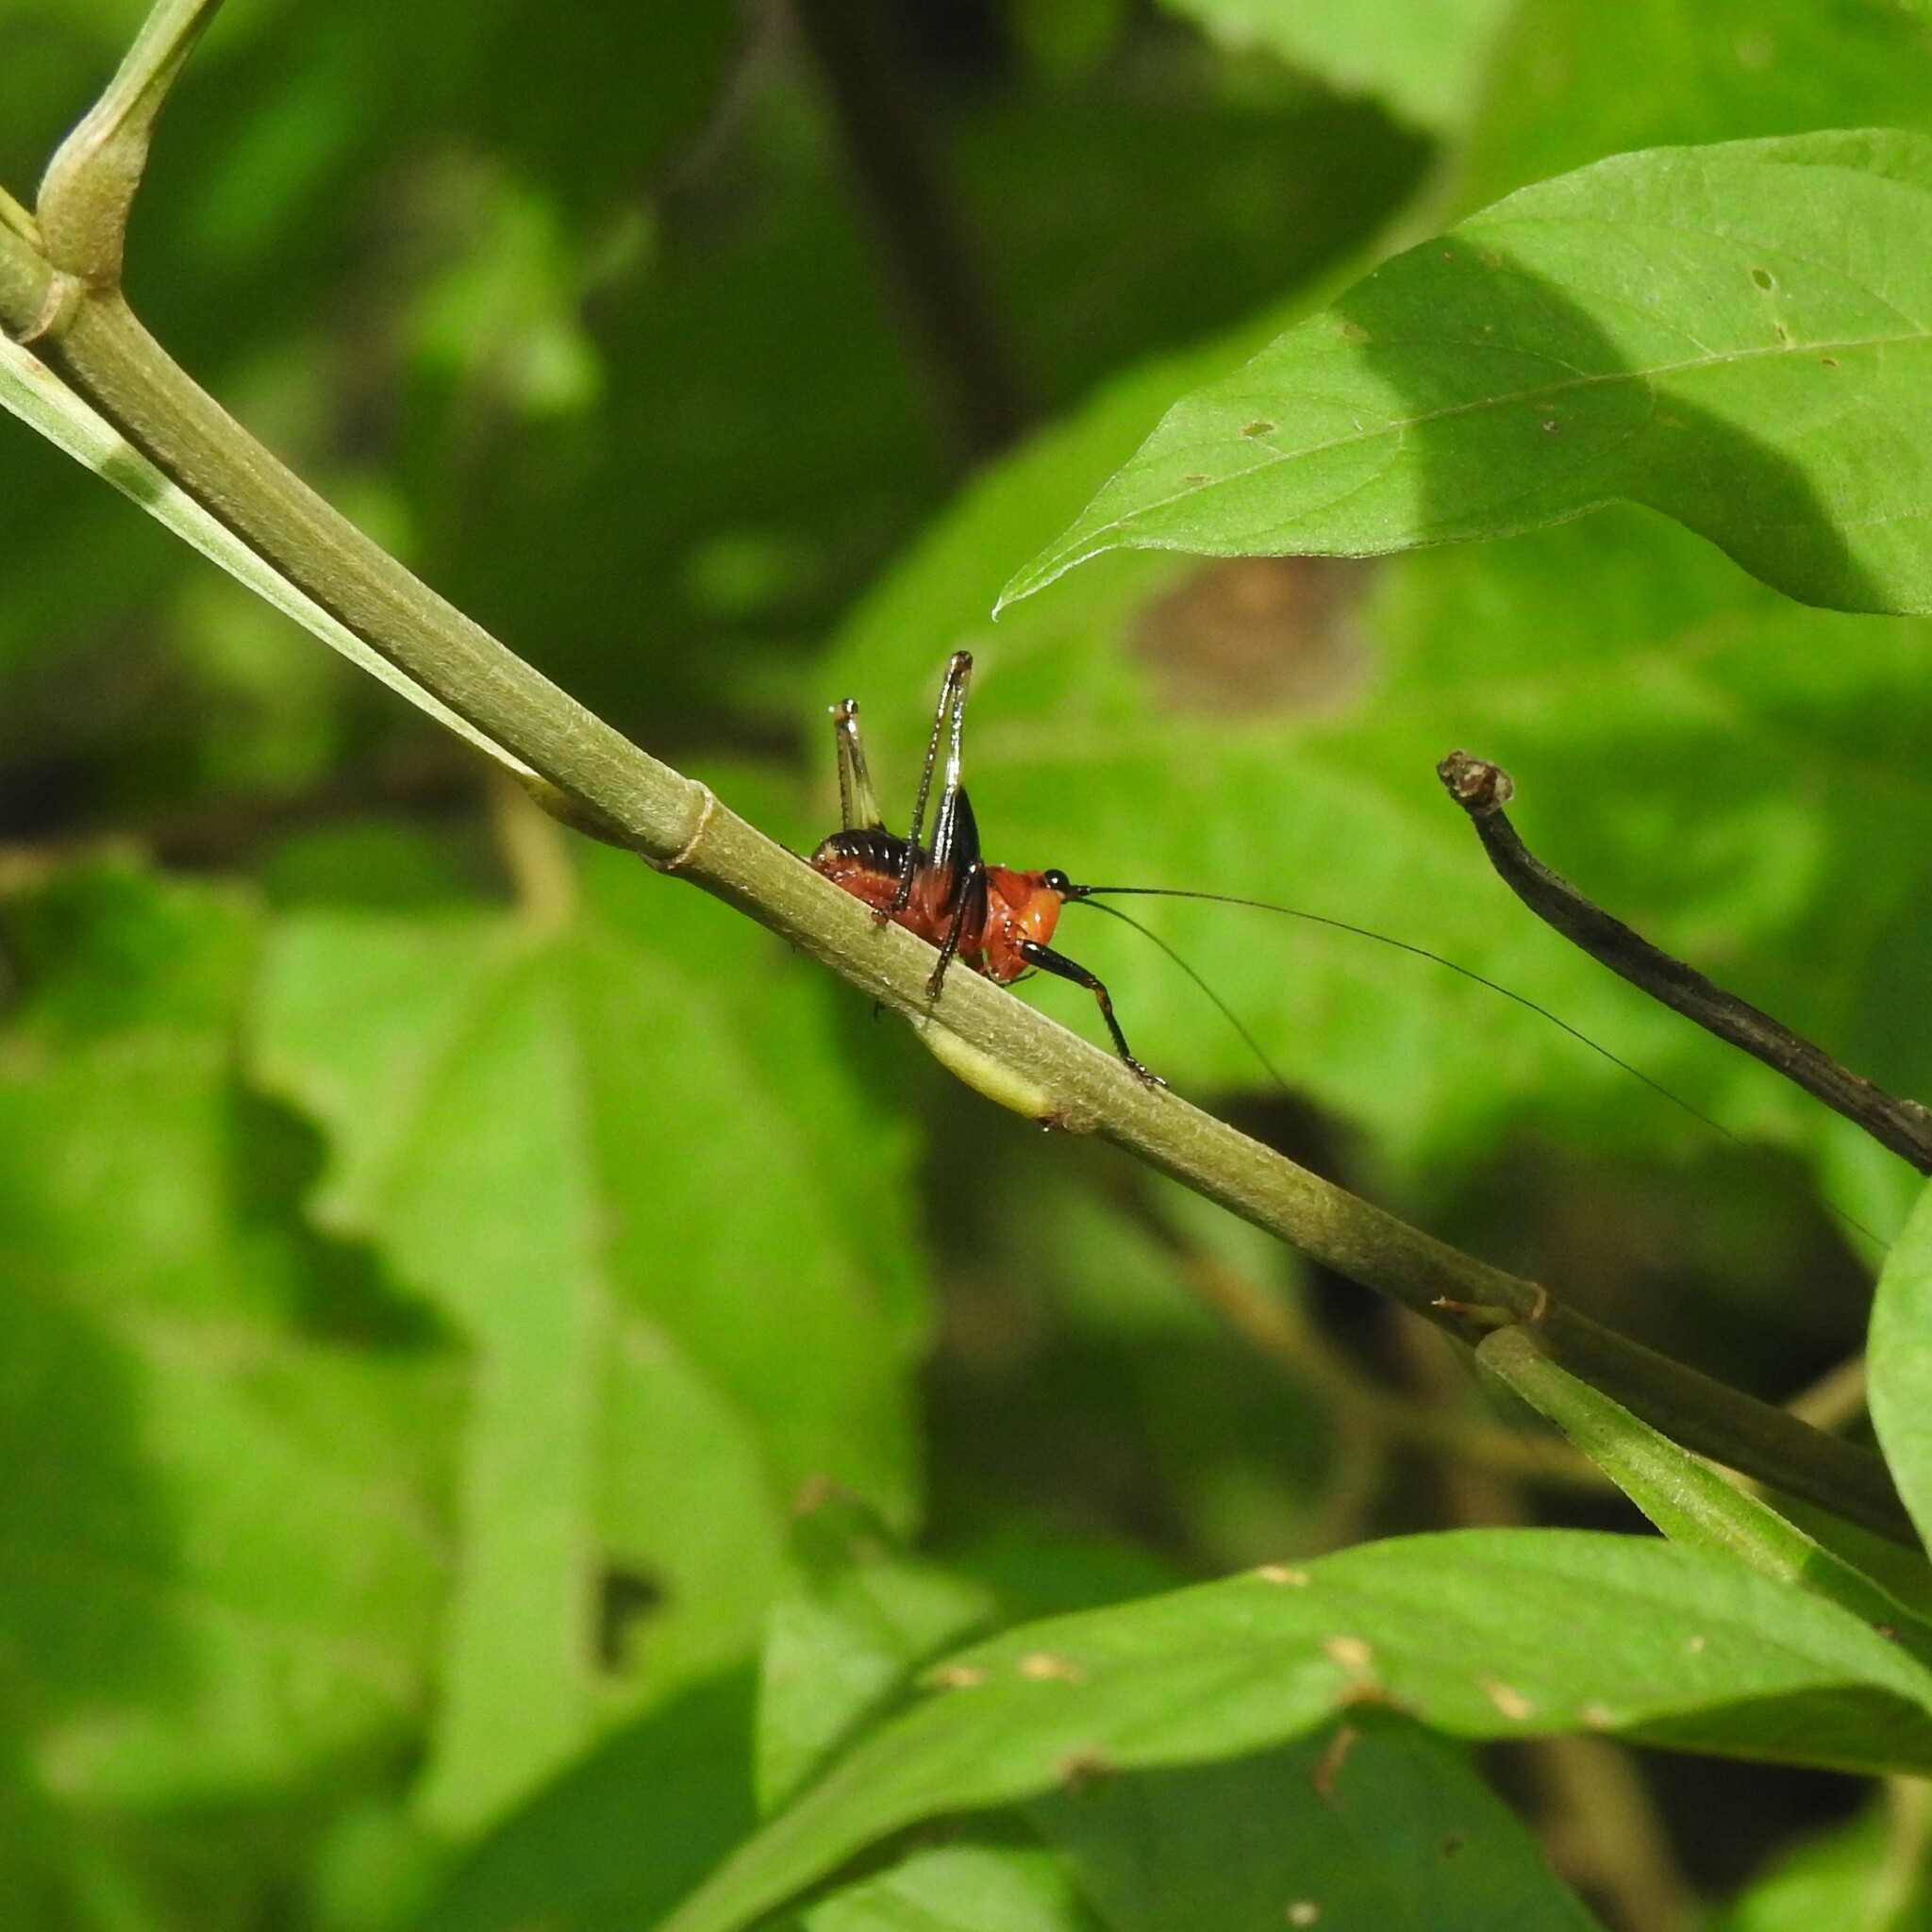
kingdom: Animalia
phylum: Arthropoda
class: Insecta
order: Orthoptera
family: Tettigoniidae
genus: Conocephalus
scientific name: Conocephalus melaenus
